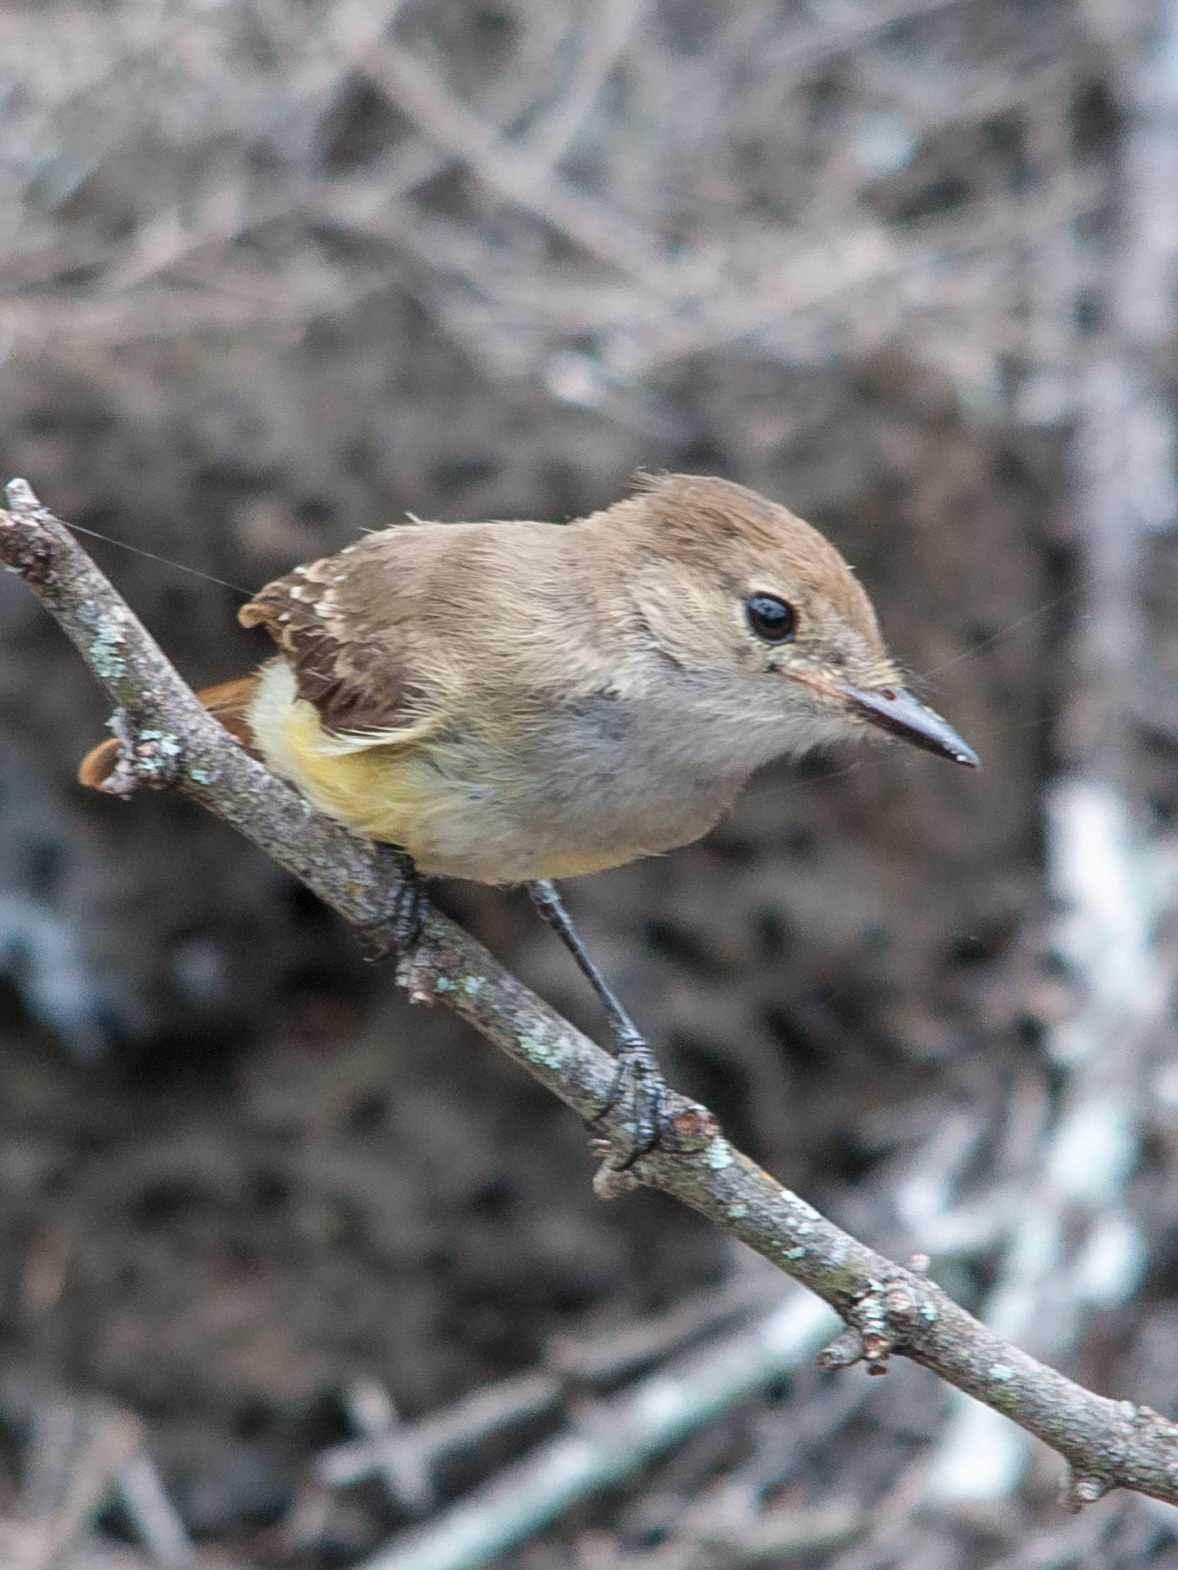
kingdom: Animalia
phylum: Chordata
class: Aves
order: Passeriformes
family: Tyrannidae
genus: Myiarchus
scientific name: Myiarchus magnirostris
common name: Galapagos flycatcher
